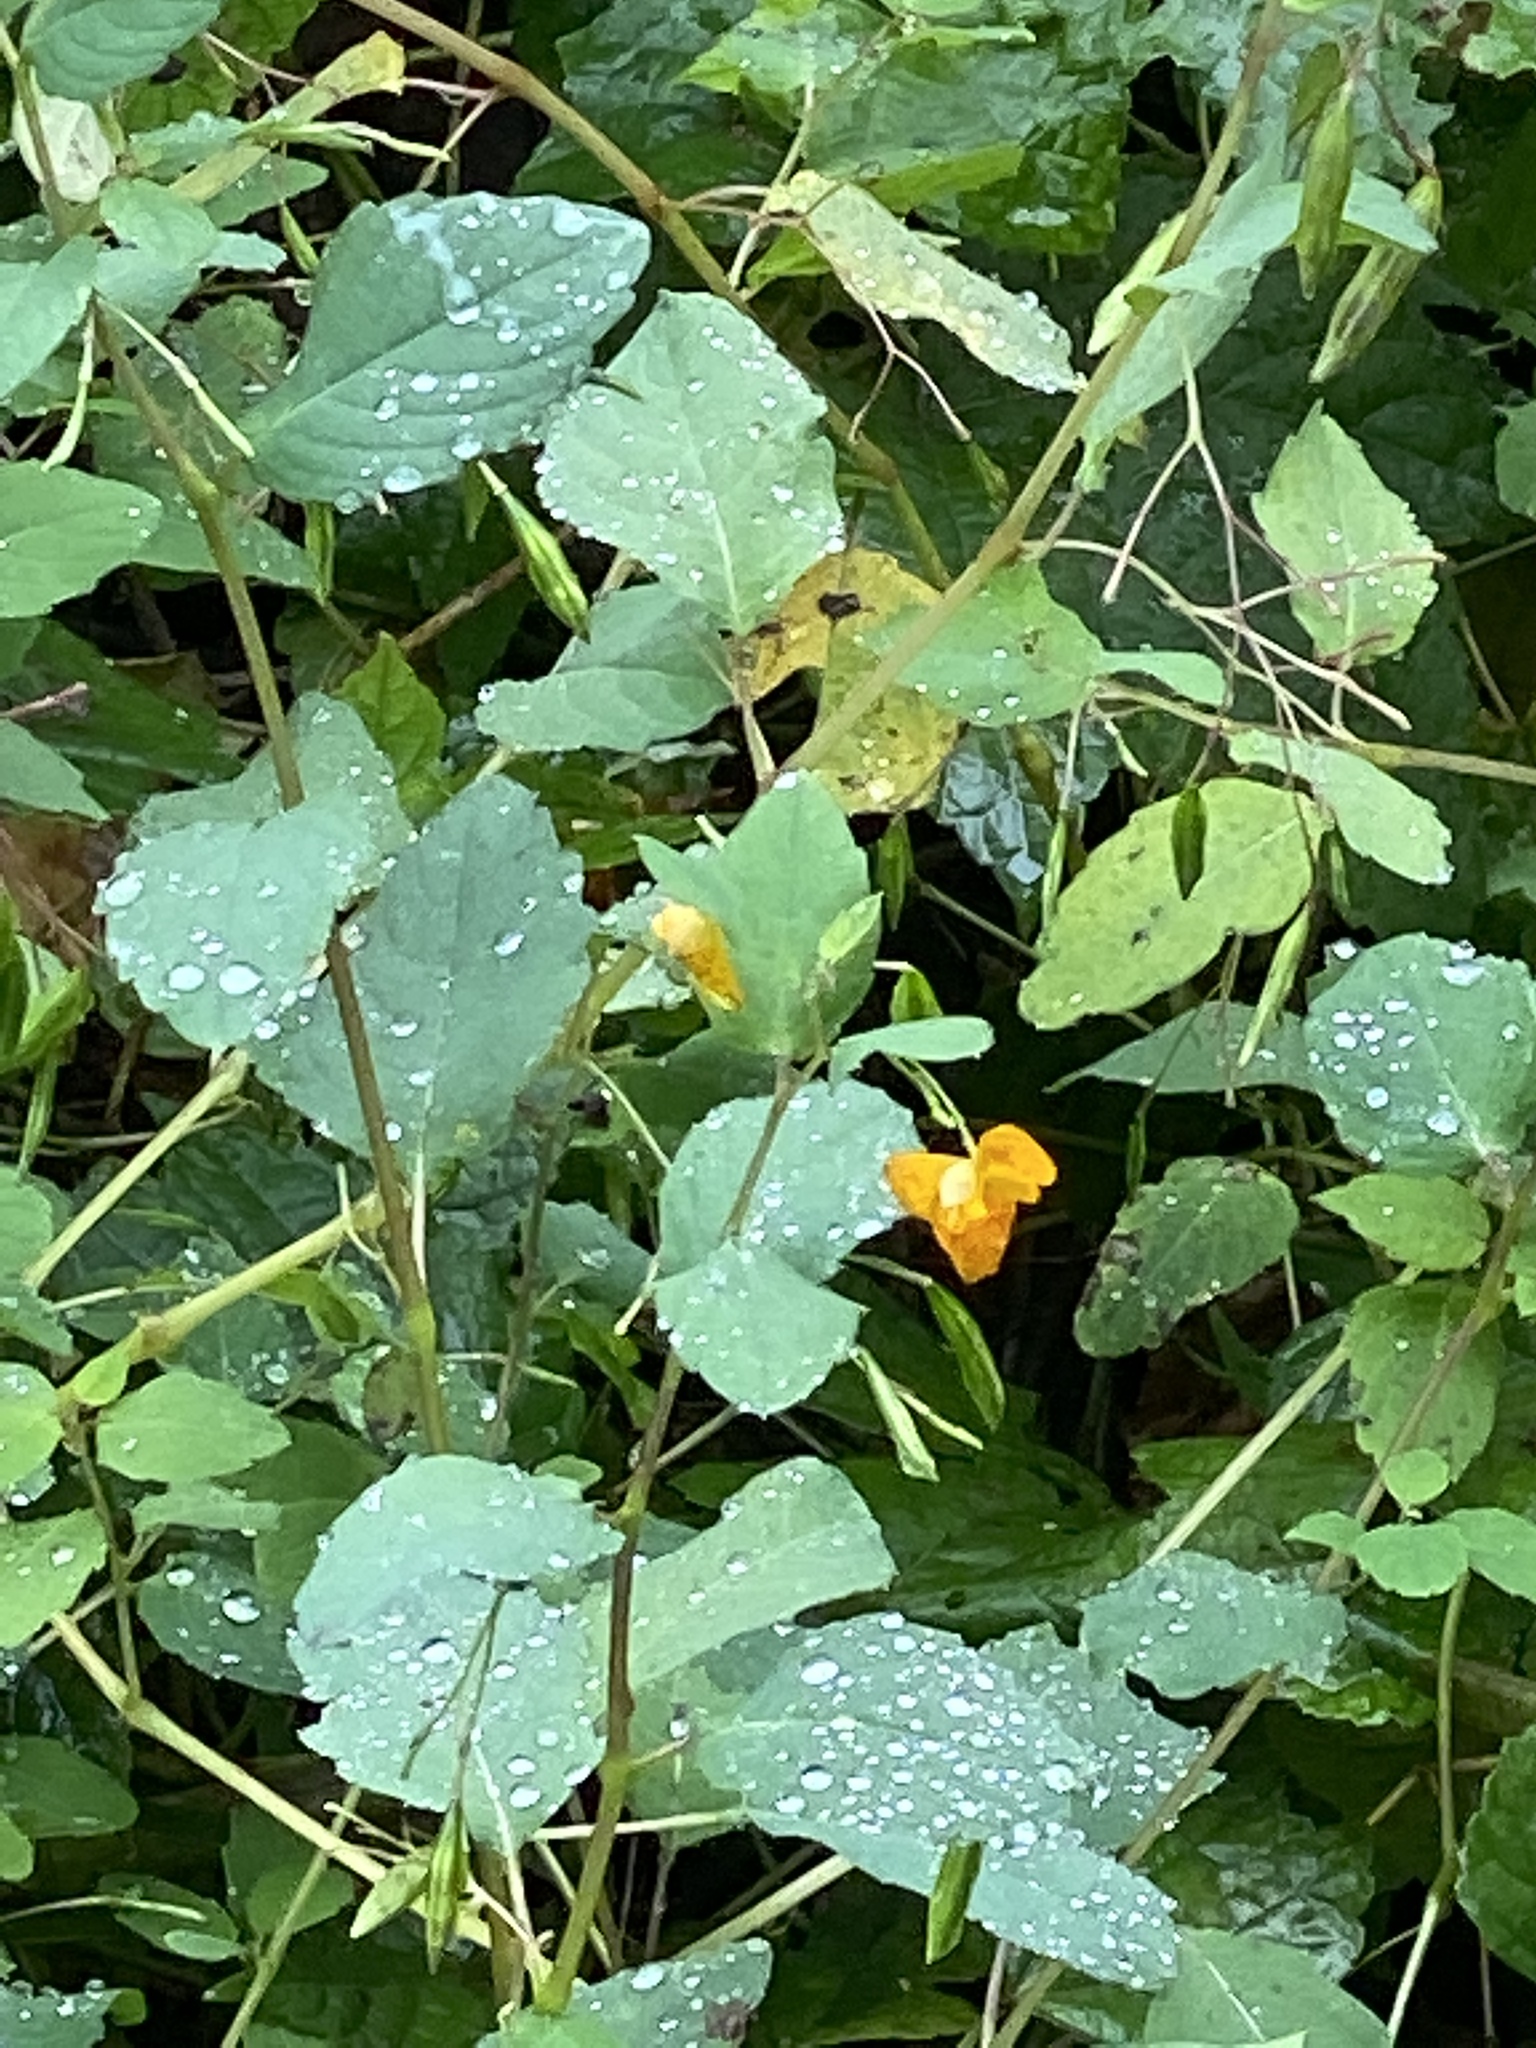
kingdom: Plantae
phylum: Tracheophyta
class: Magnoliopsida
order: Ericales
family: Balsaminaceae
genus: Impatiens
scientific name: Impatiens capensis
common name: Orange balsam
